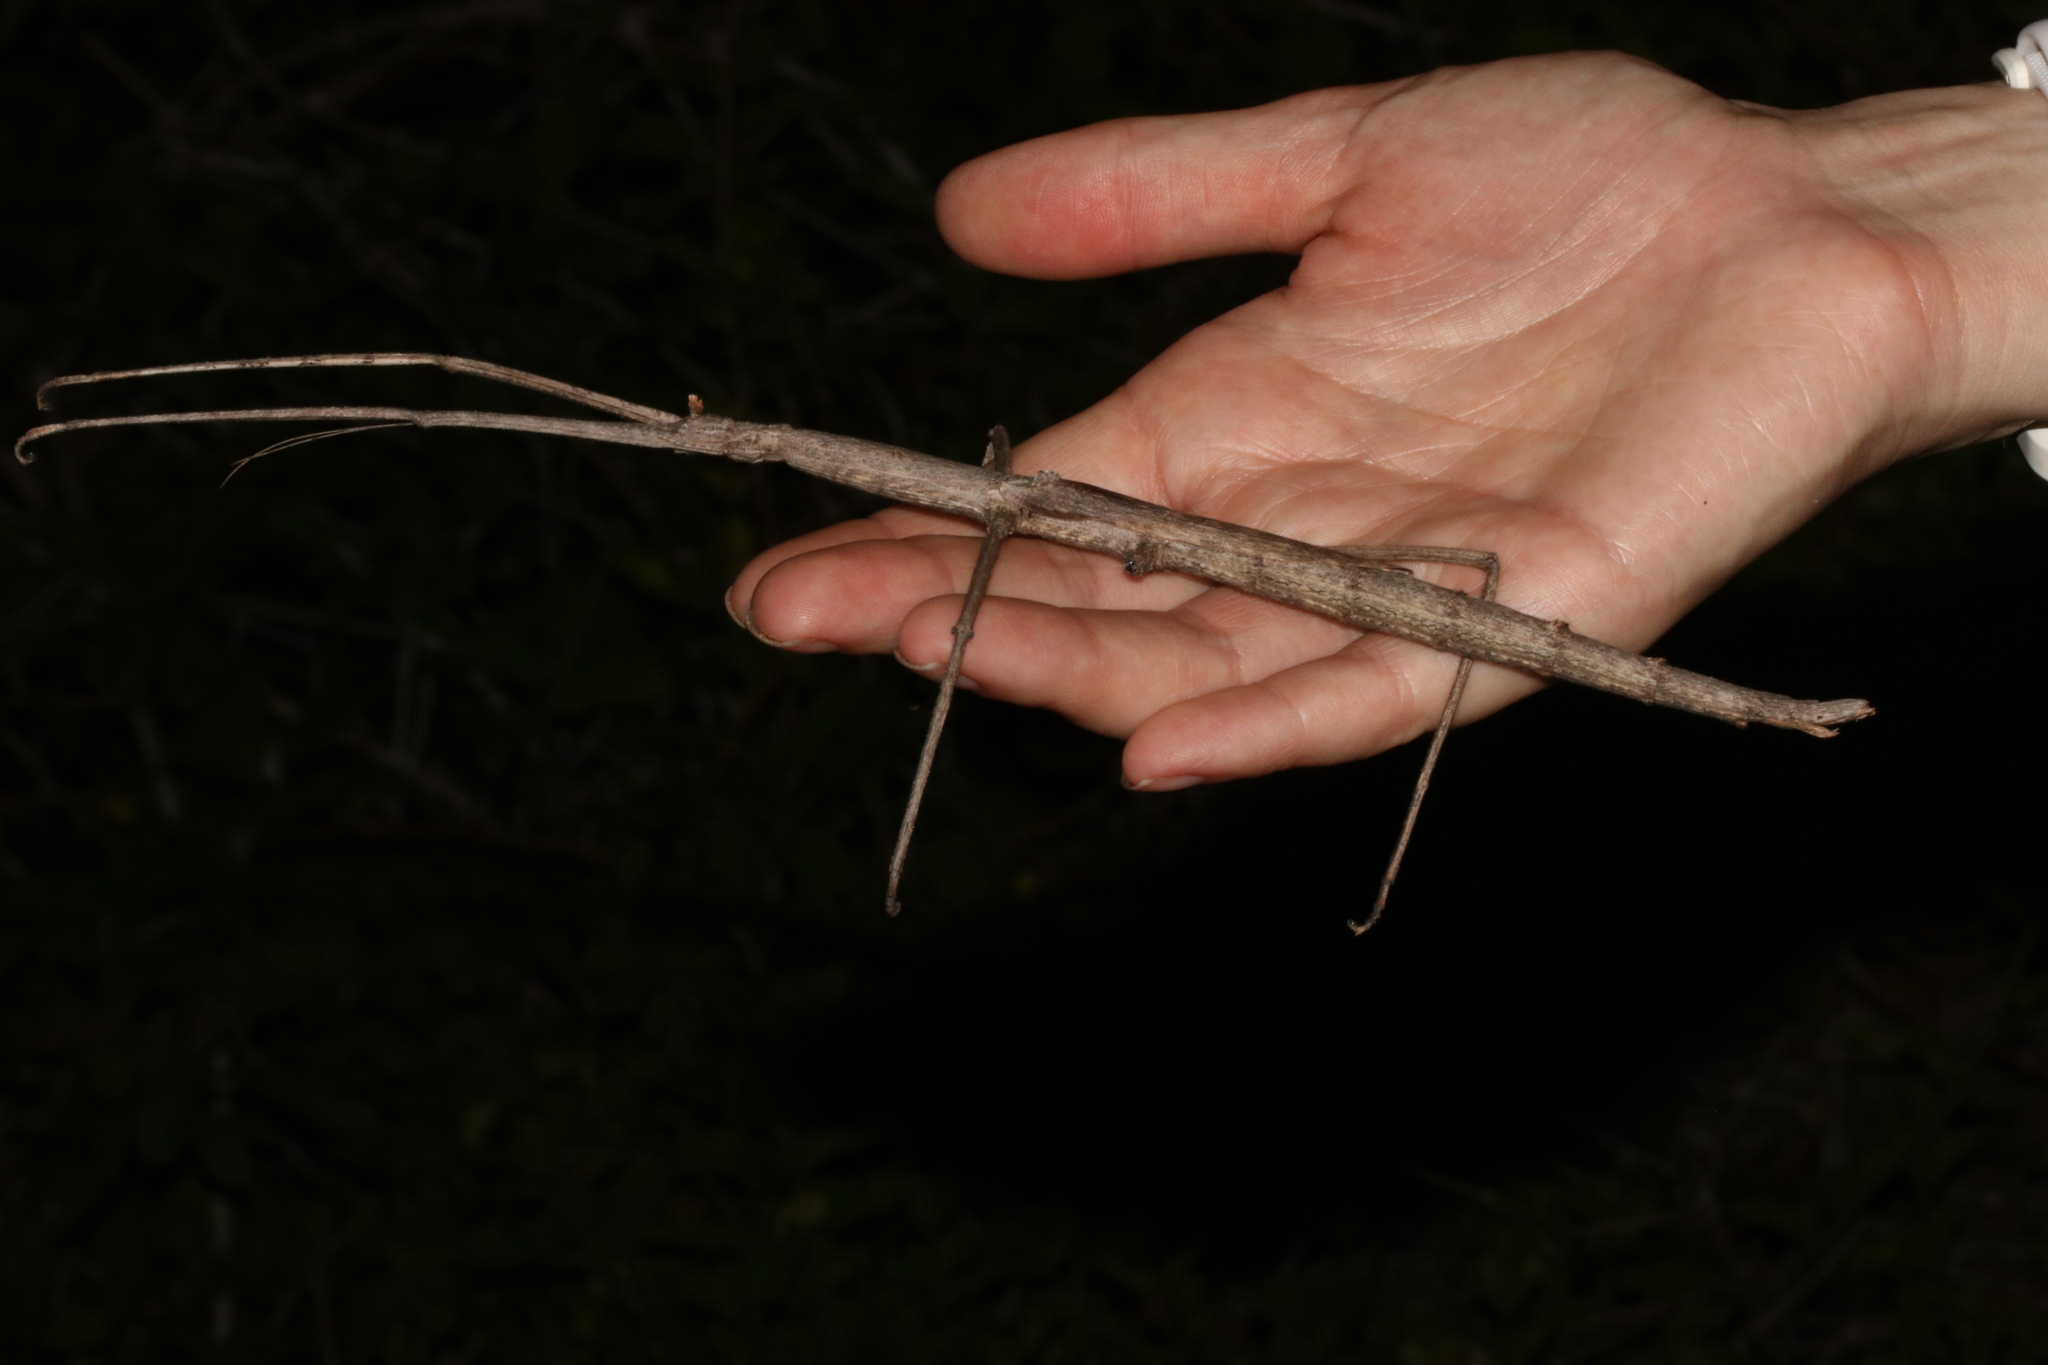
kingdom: Animalia
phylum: Arthropoda
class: Insecta
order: Phasmida
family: Diapheromeridae
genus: Bactrododema
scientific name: Bactrododema tiaratum
